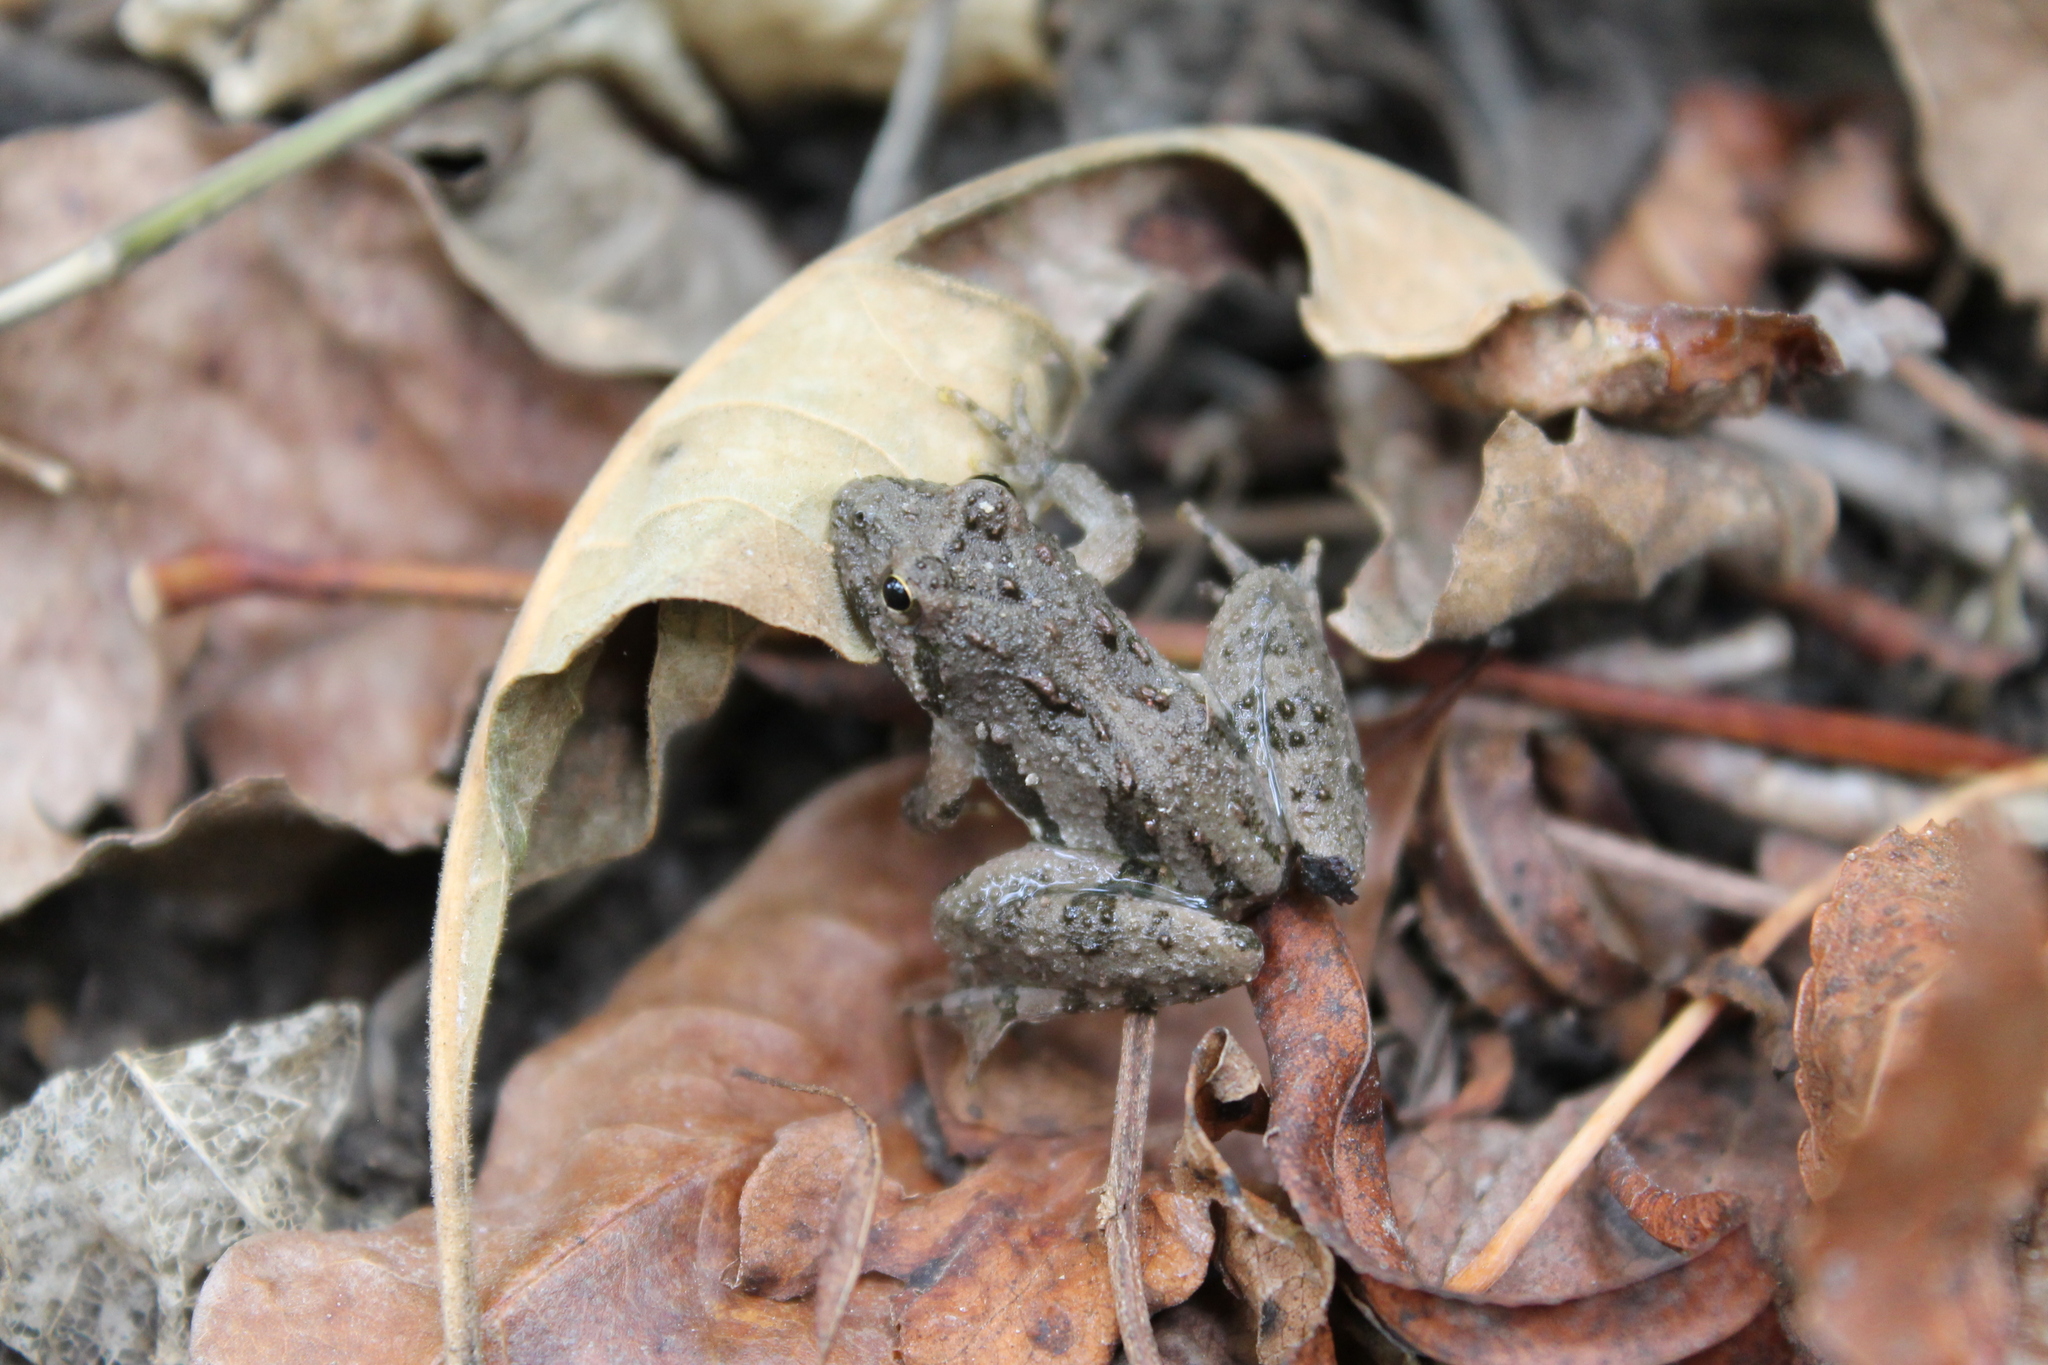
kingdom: Animalia
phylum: Chordata
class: Amphibia
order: Anura
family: Hylidae
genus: Acris
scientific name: Acris crepitans
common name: Northern cricket frog
